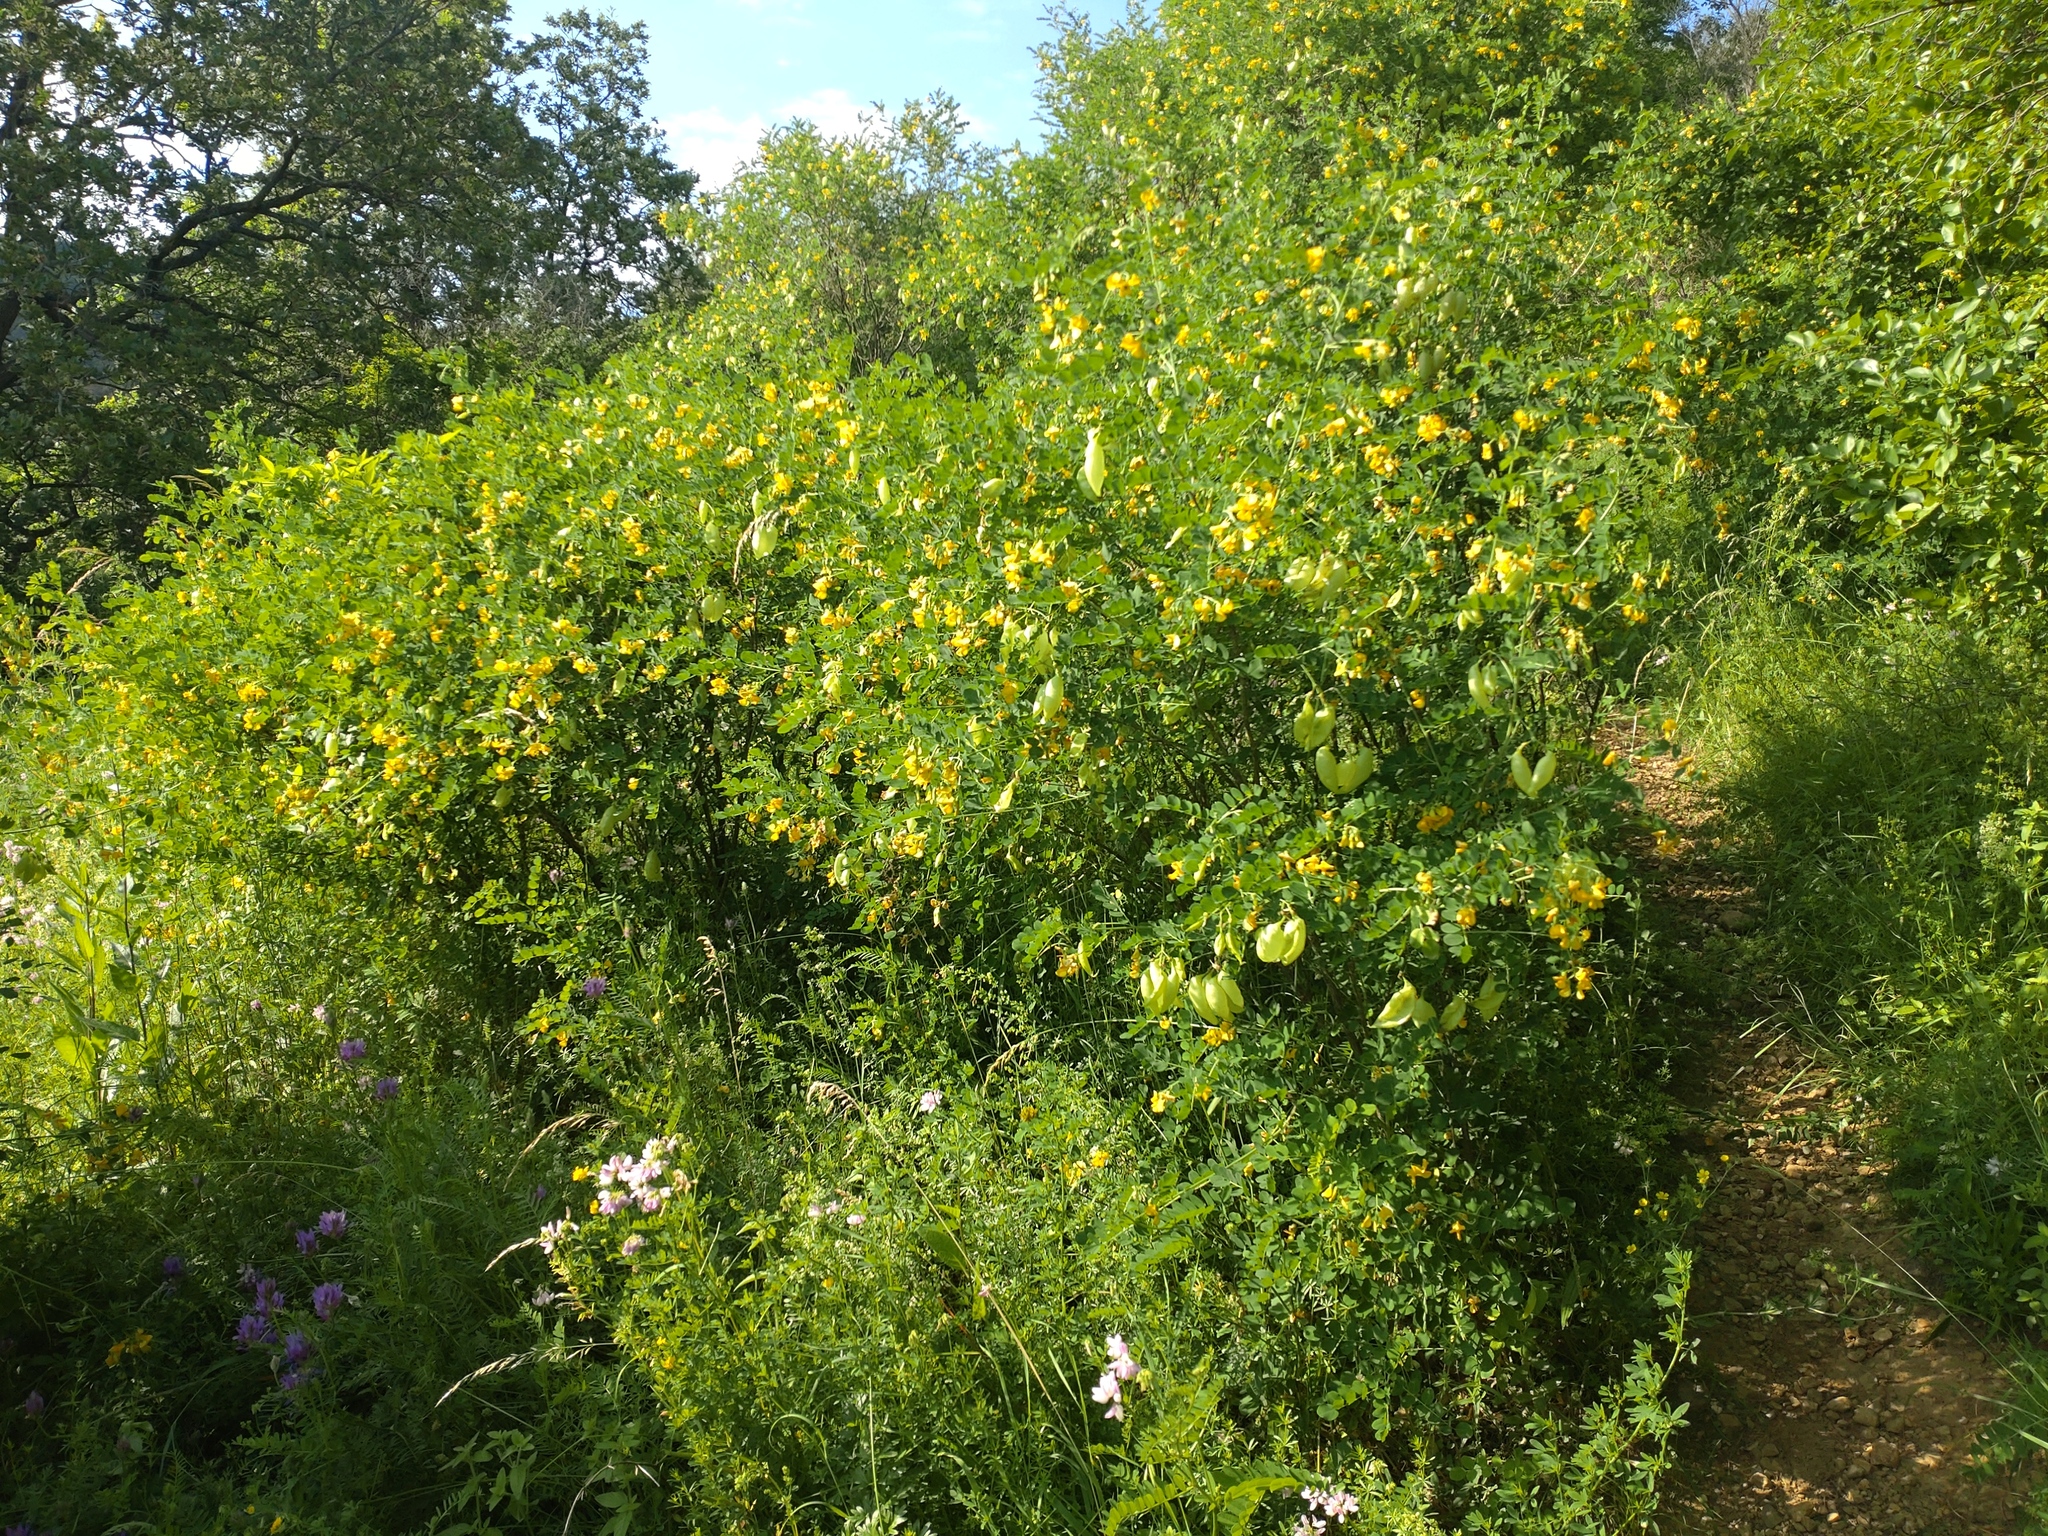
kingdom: Plantae
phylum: Tracheophyta
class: Magnoliopsida
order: Fabales
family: Fabaceae
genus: Colutea
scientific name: Colutea arborescens
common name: Bladder-senna
